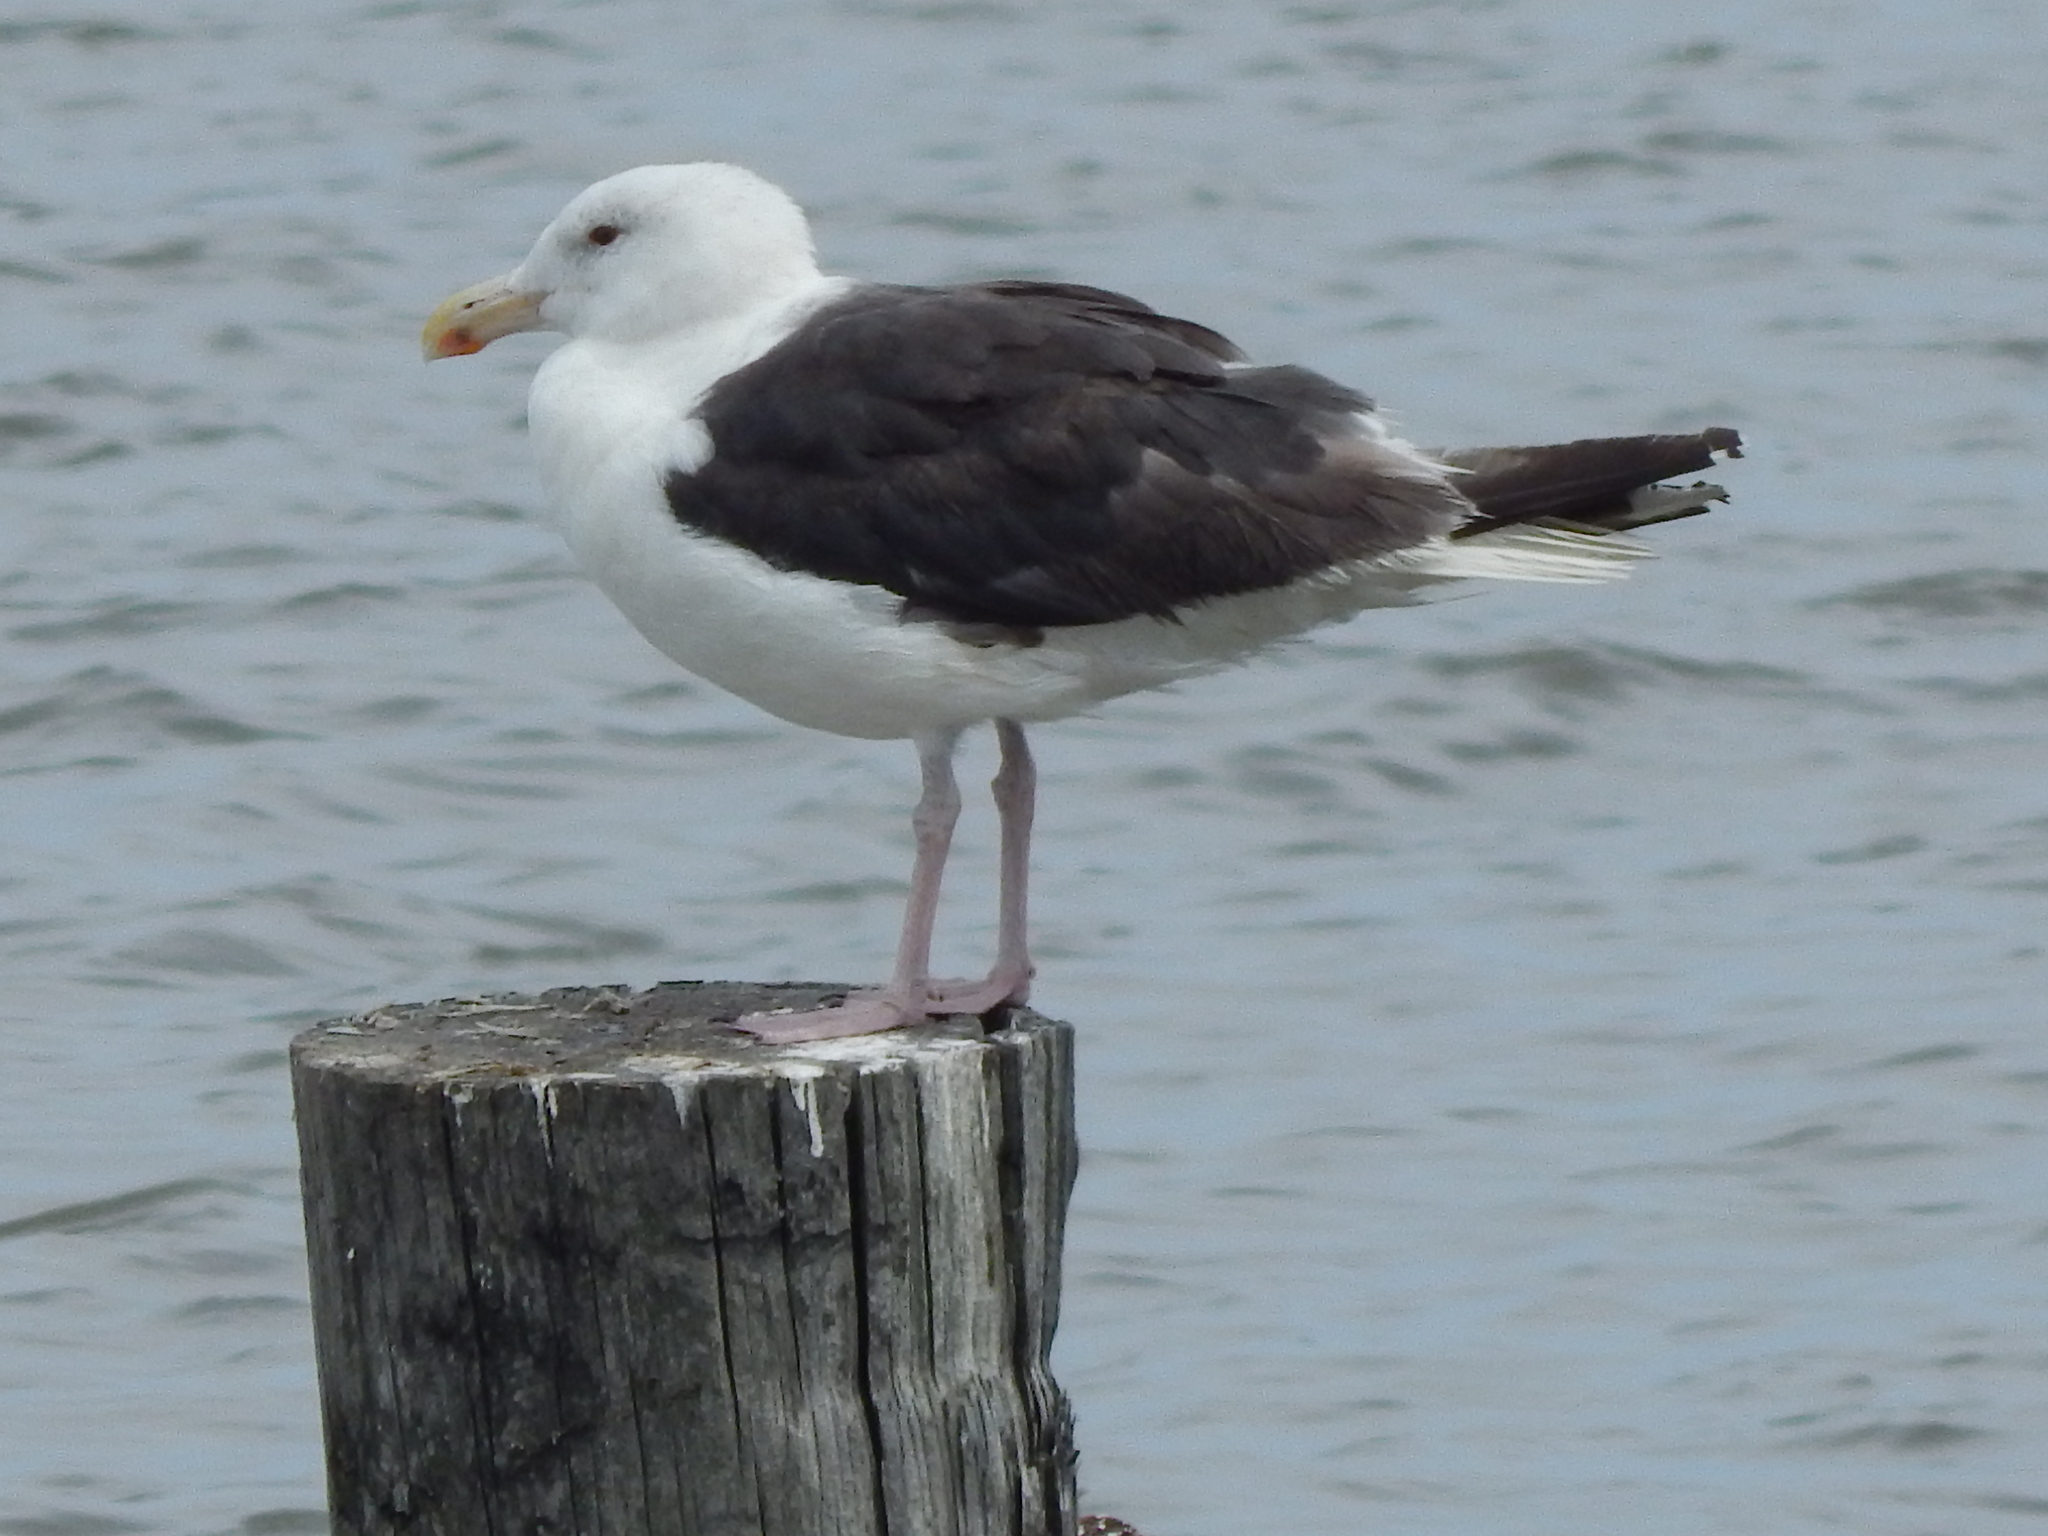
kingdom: Animalia
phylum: Chordata
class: Aves
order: Charadriiformes
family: Laridae
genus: Larus
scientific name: Larus marinus
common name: Great black-backed gull
